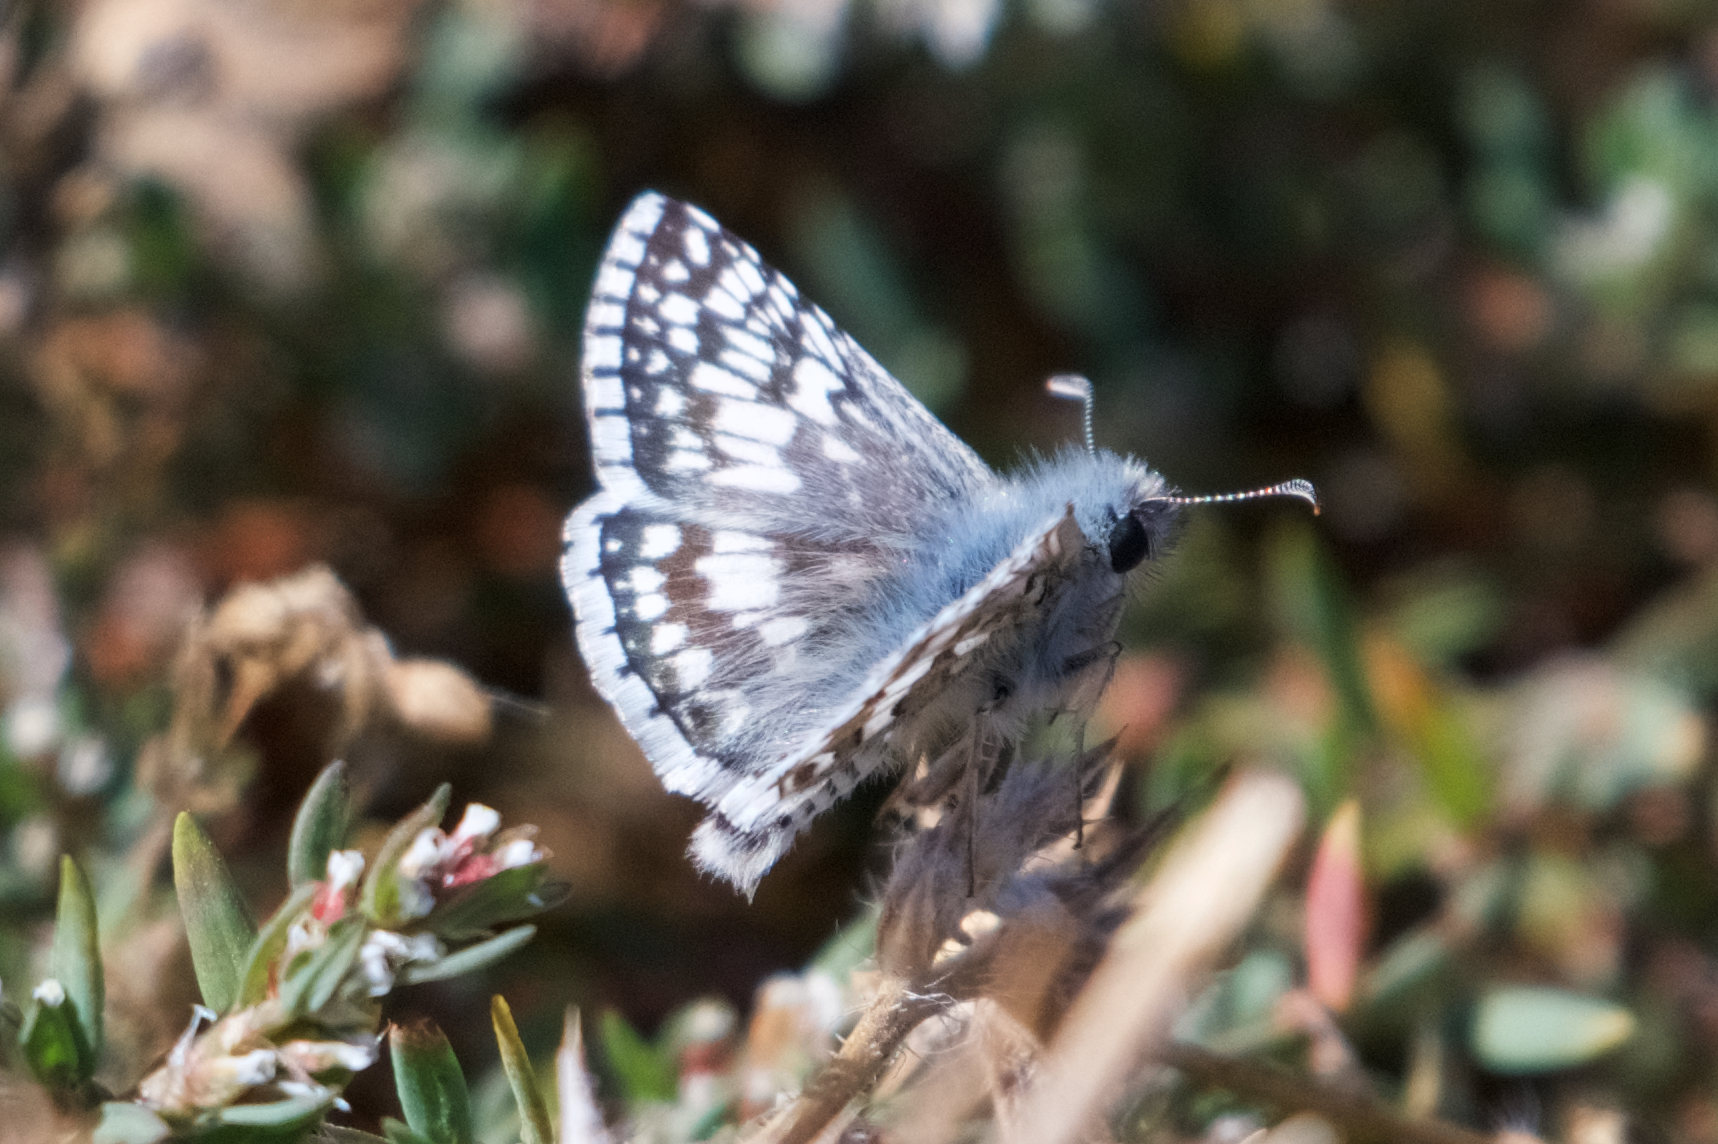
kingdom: Animalia
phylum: Arthropoda
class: Insecta
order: Lepidoptera
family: Hesperiidae
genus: Burnsius
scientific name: Burnsius communis
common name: Common checkered-skipper
